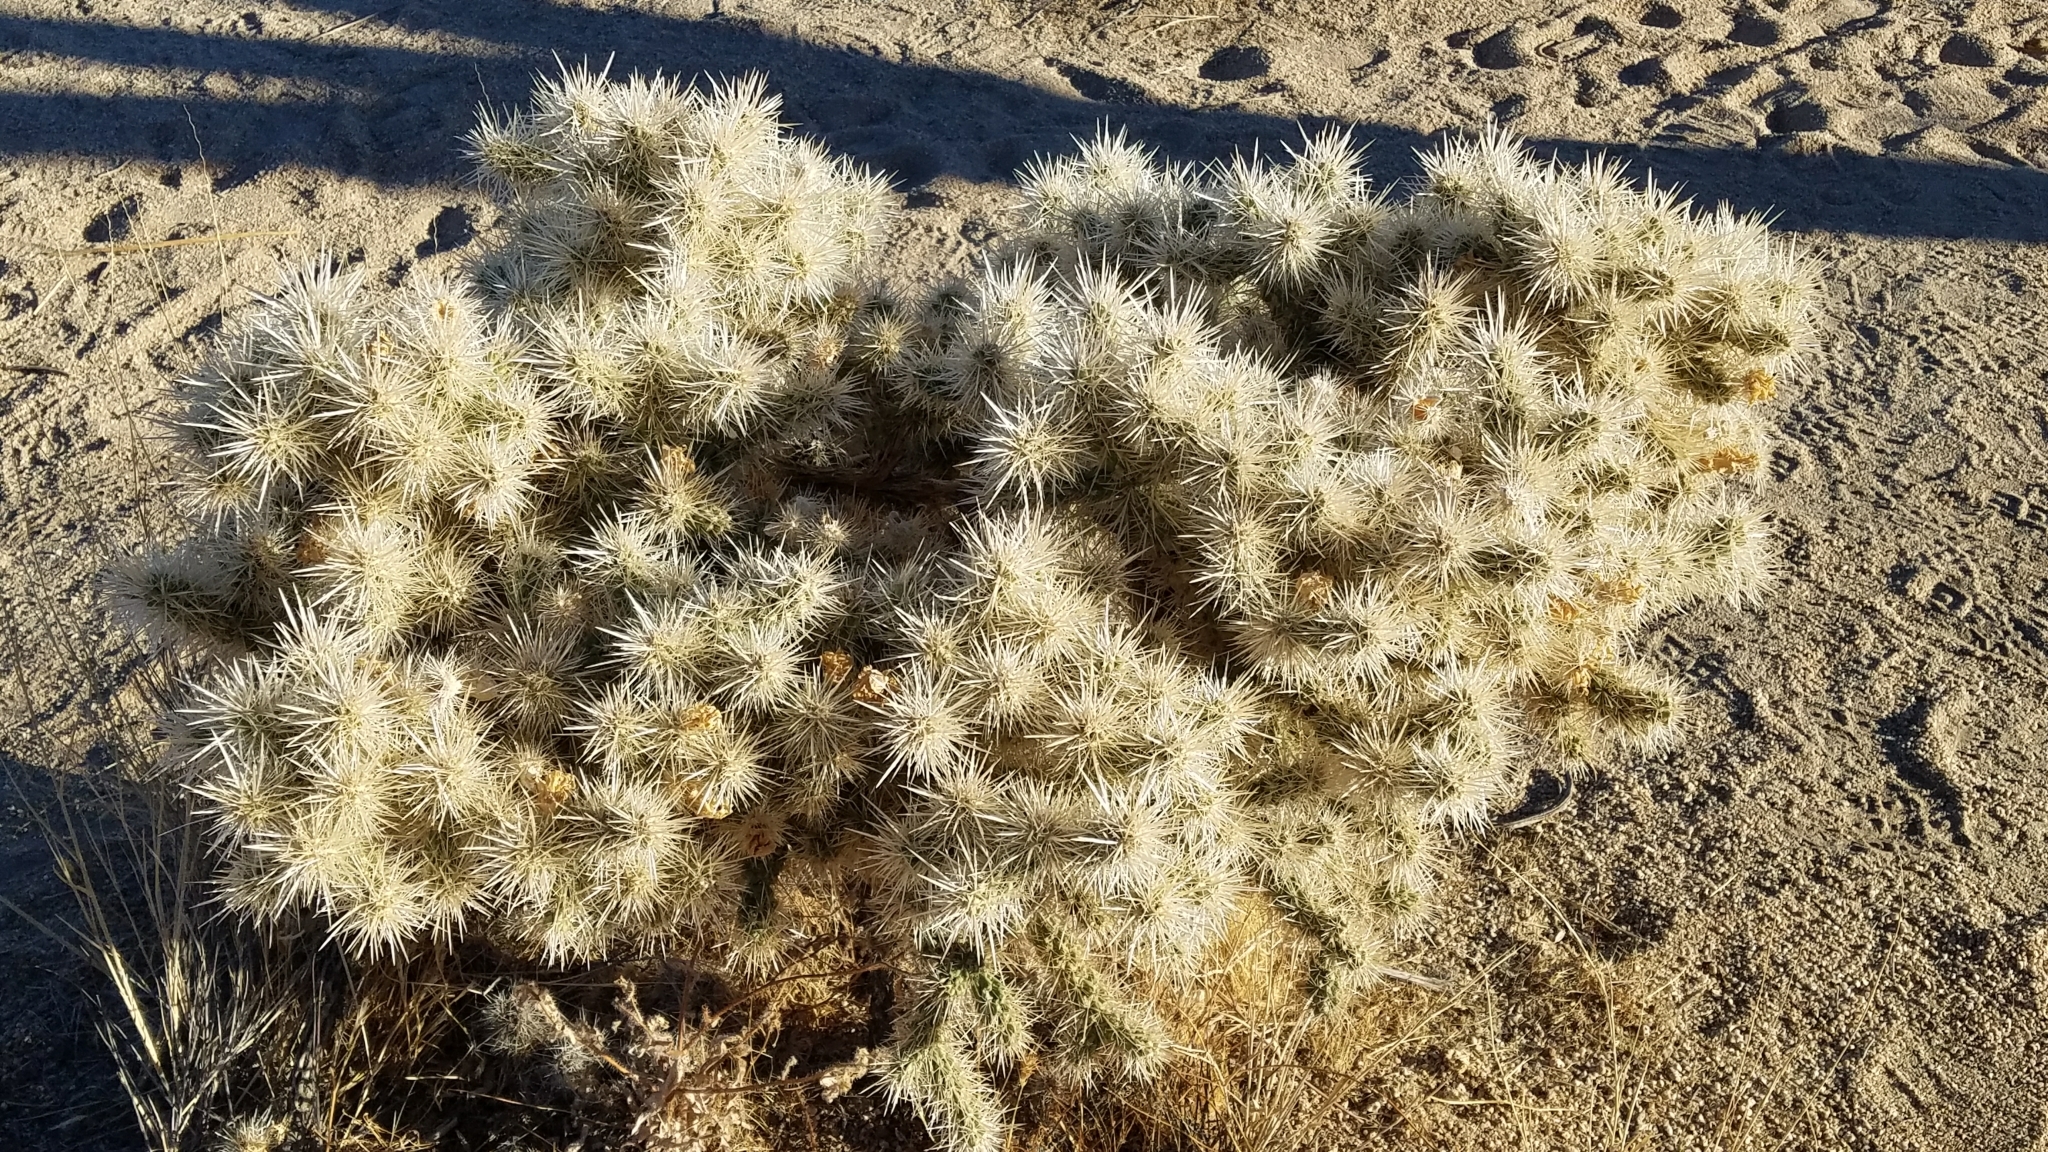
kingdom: Plantae
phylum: Tracheophyta
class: Magnoliopsida
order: Caryophyllales
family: Cactaceae
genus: Cylindropuntia
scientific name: Cylindropuntia echinocarpa
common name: Ground cholla
